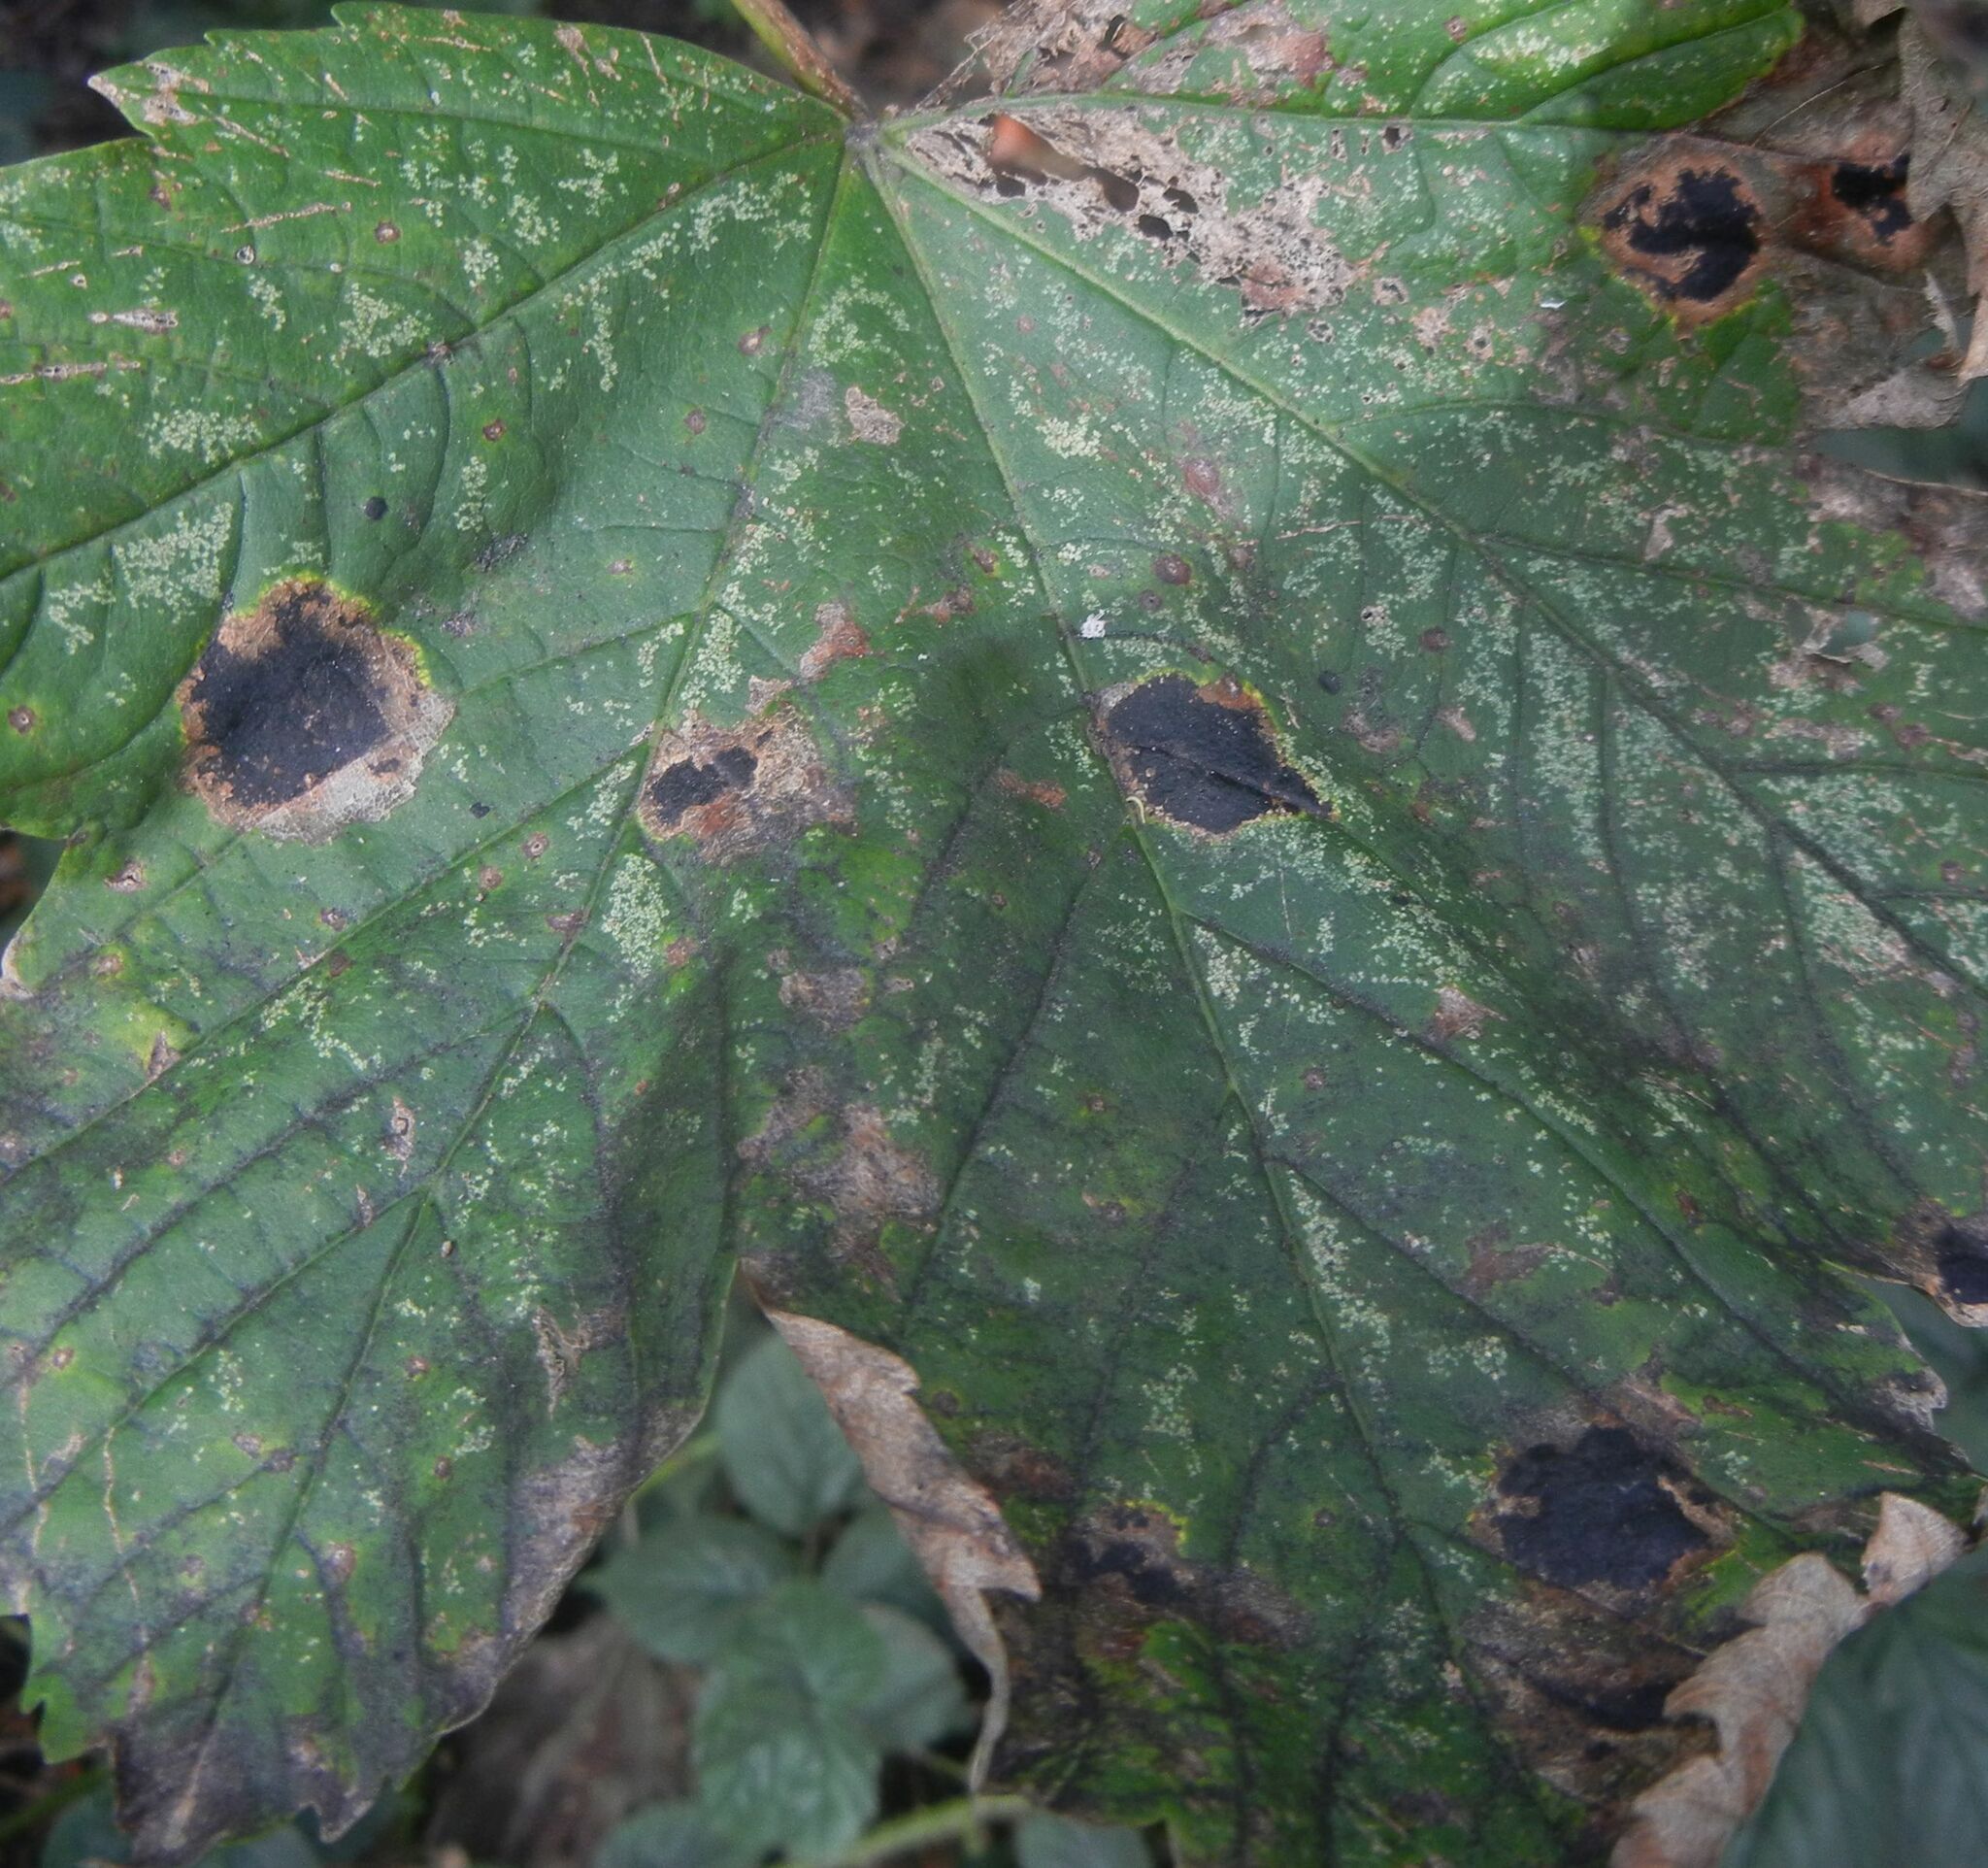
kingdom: Fungi
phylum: Ascomycota
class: Leotiomycetes
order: Rhytismatales
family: Rhytismataceae
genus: Rhytisma
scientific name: Rhytisma acerinum
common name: European tar spot
